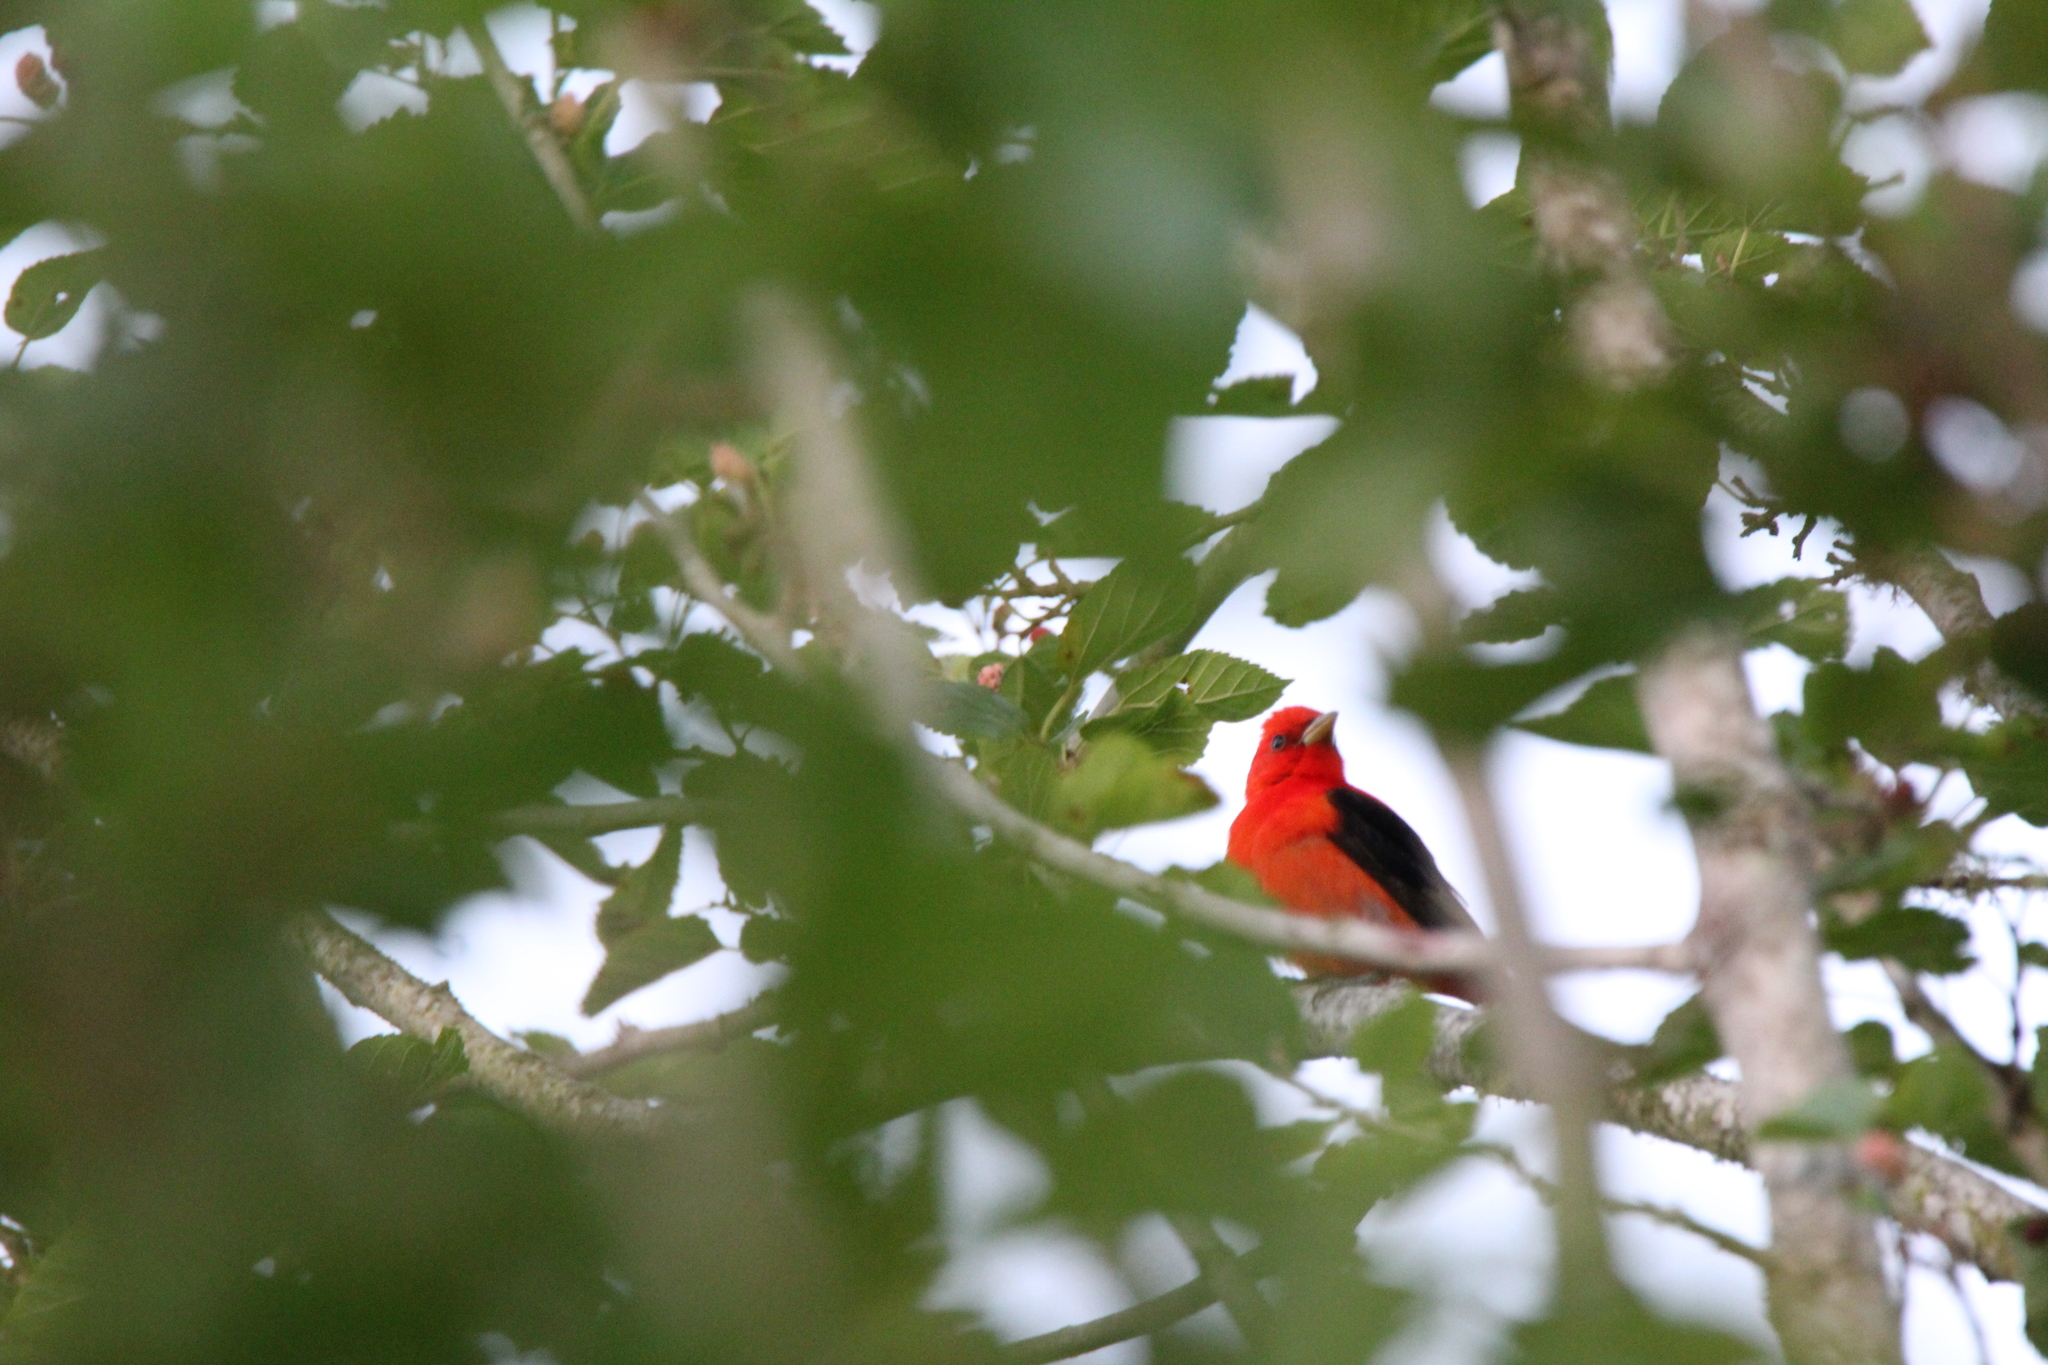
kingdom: Animalia
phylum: Chordata
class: Aves
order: Passeriformes
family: Cardinalidae
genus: Piranga
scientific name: Piranga olivacea
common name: Scarlet tanager
